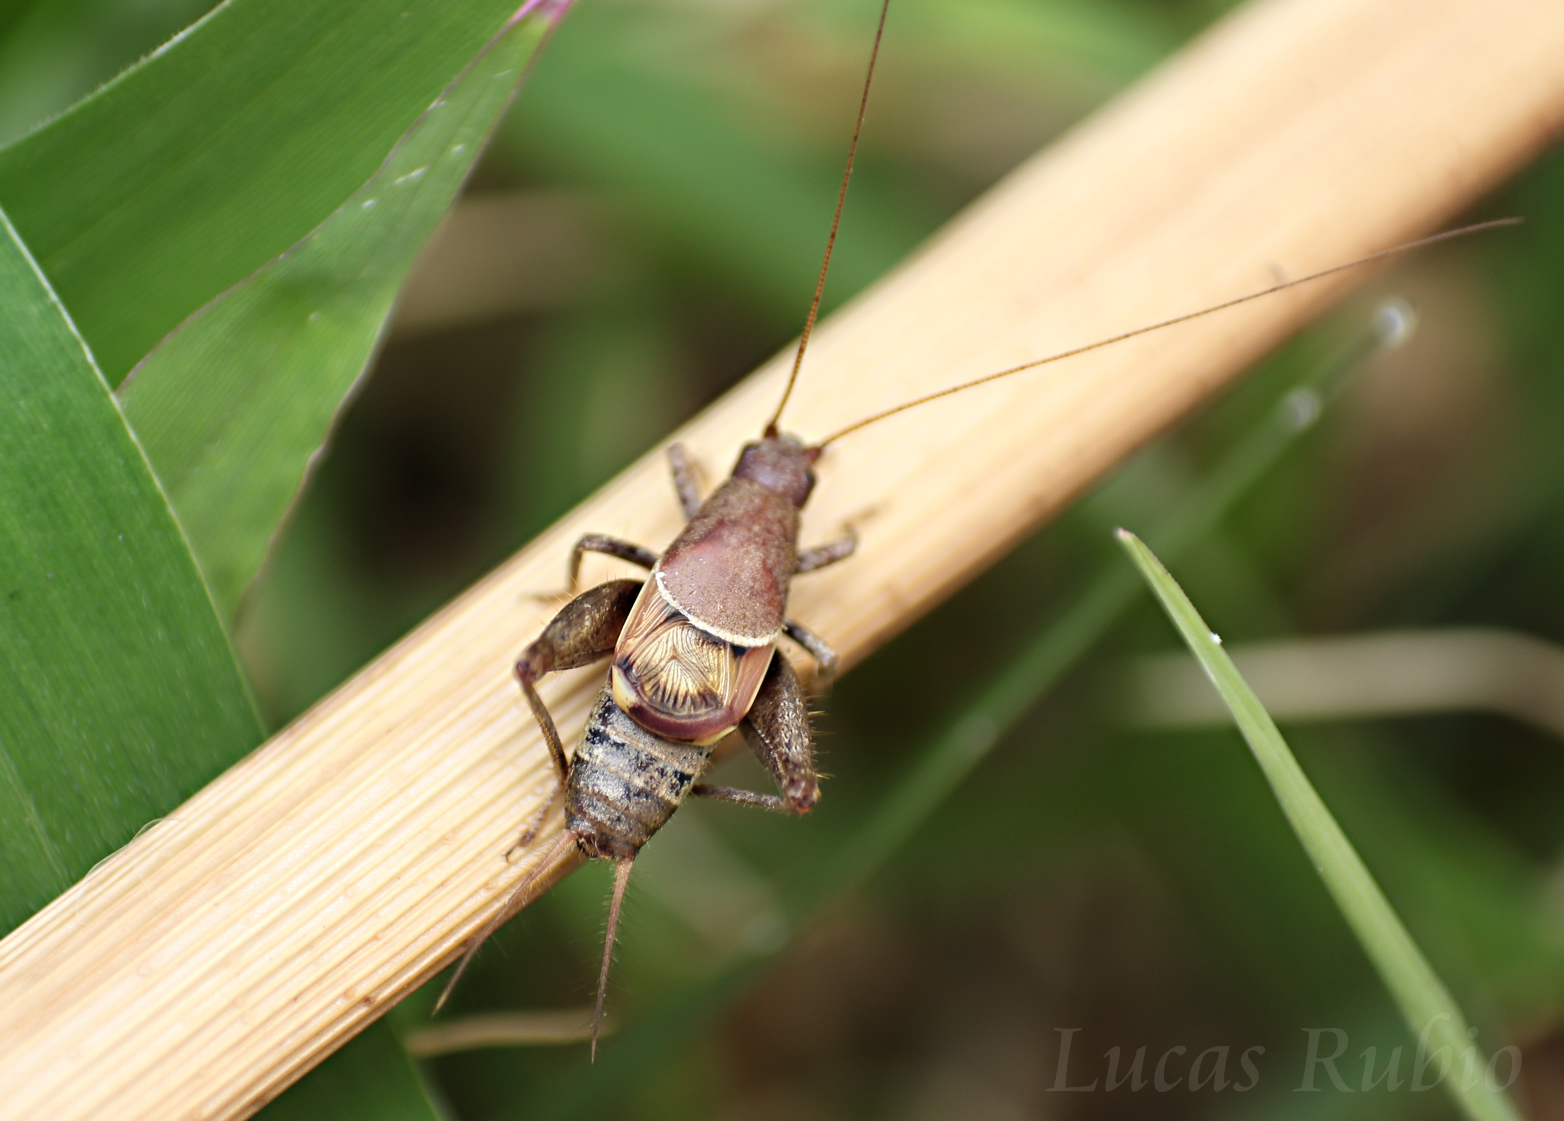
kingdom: Animalia
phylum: Arthropoda
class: Insecta
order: Orthoptera
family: Mogoplistidae
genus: Ornebius
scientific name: Ornebius alatus
